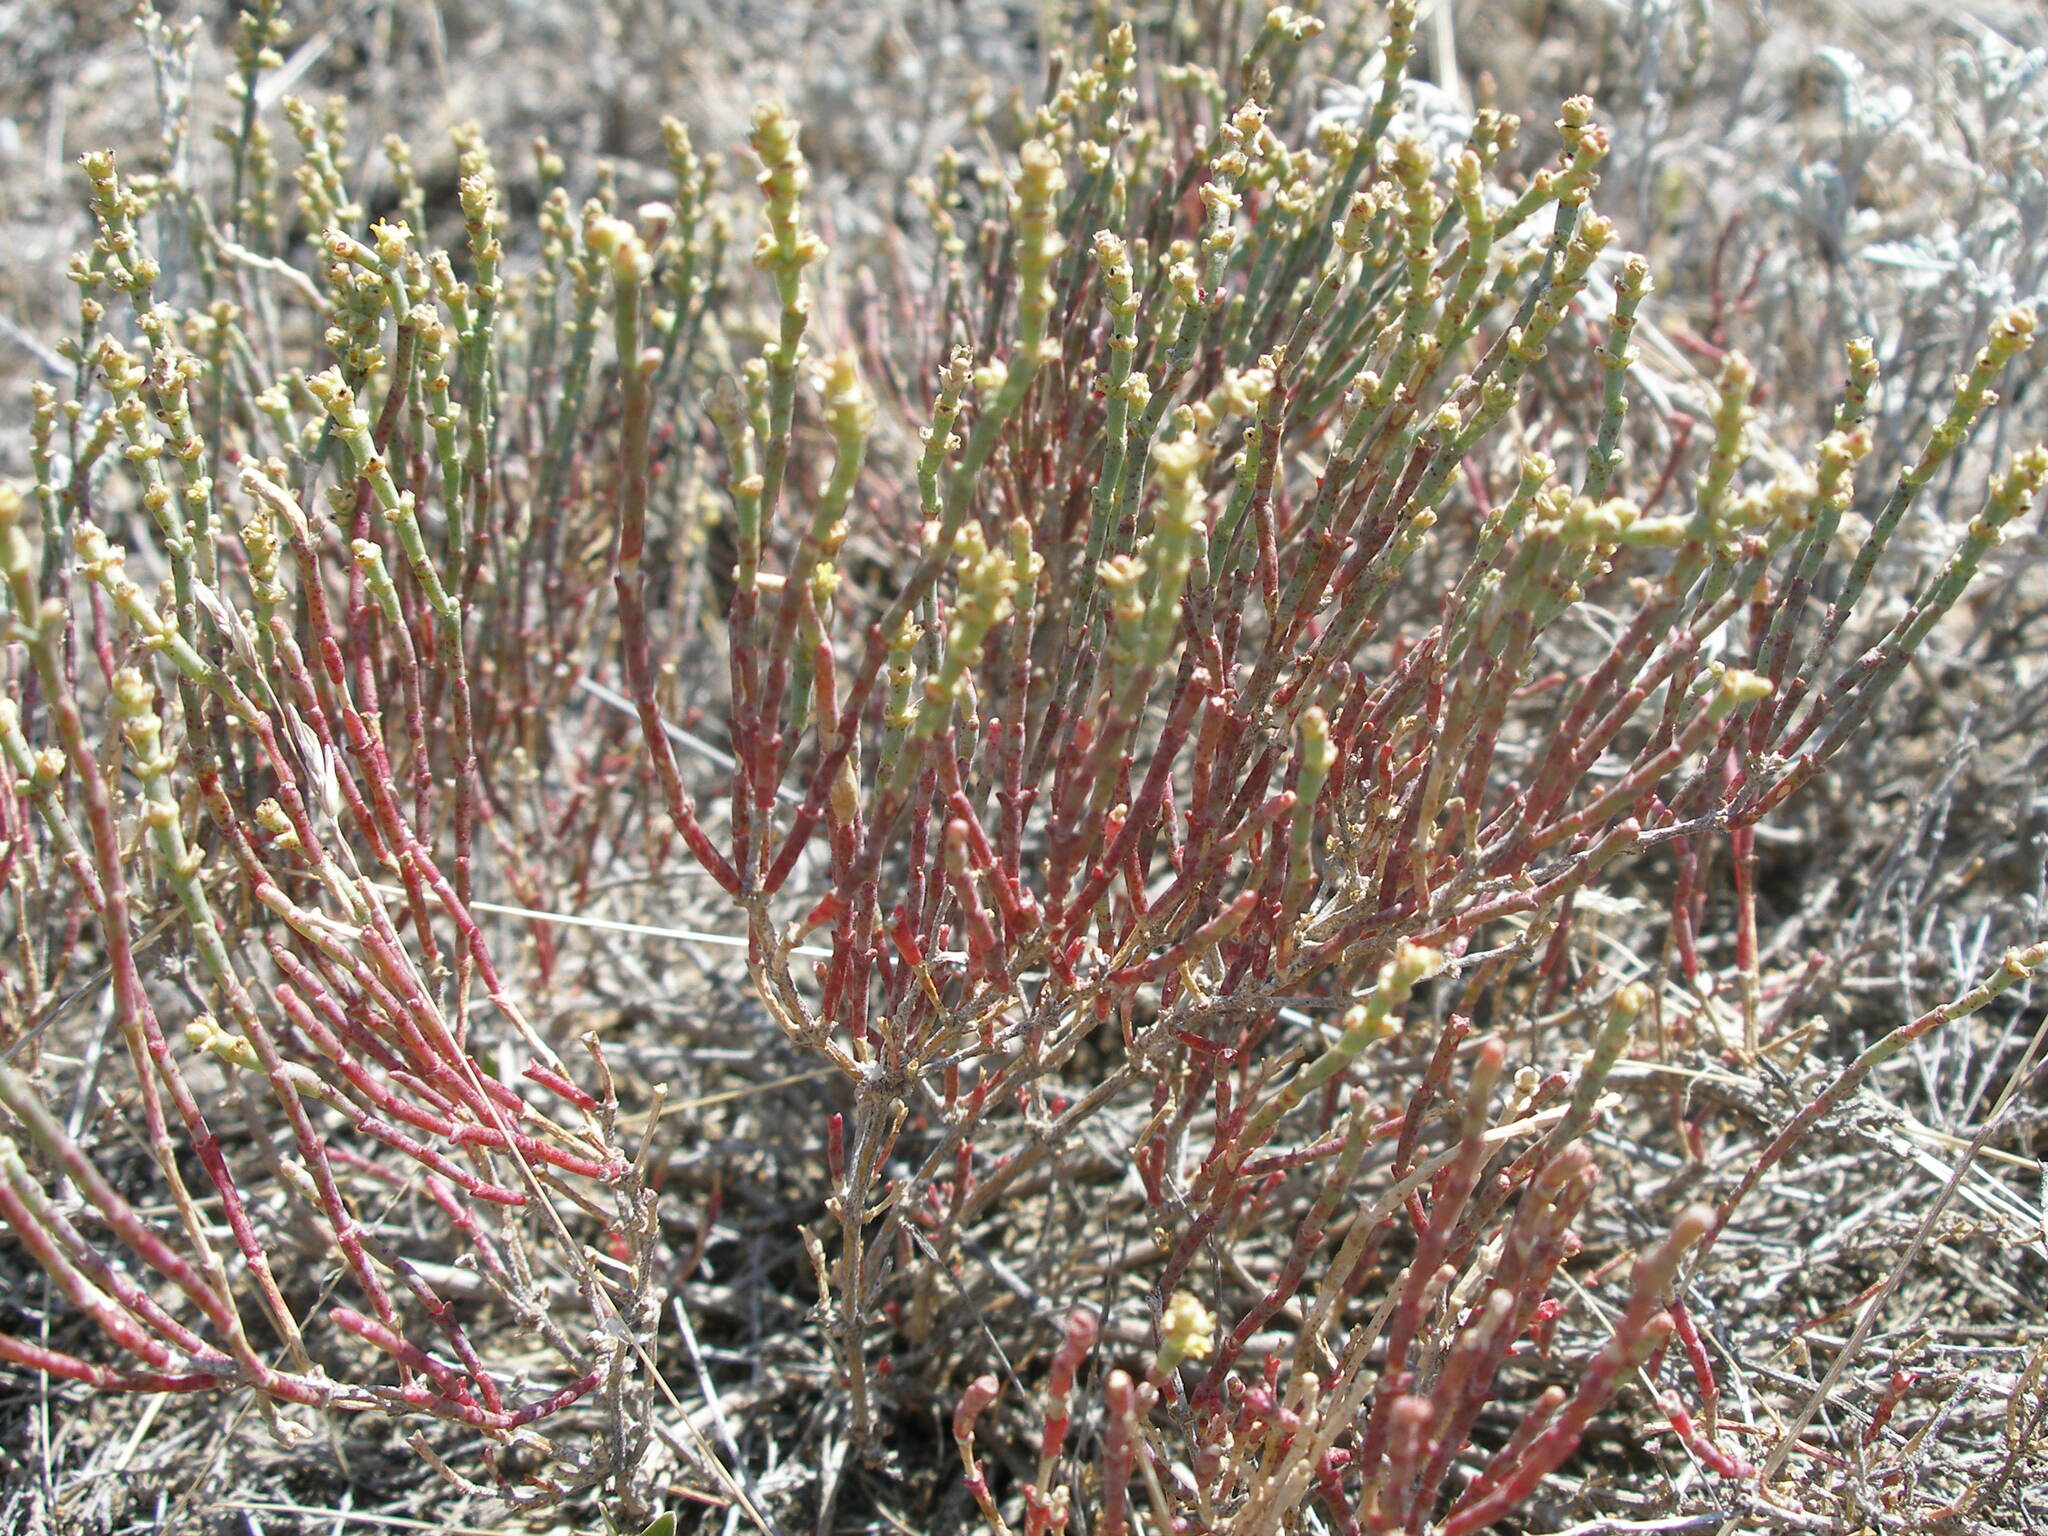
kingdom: Plantae
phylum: Tracheophyta
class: Magnoliopsida
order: Caryophyllales
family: Amaranthaceae
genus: Anabasis
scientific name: Anabasis salsa
